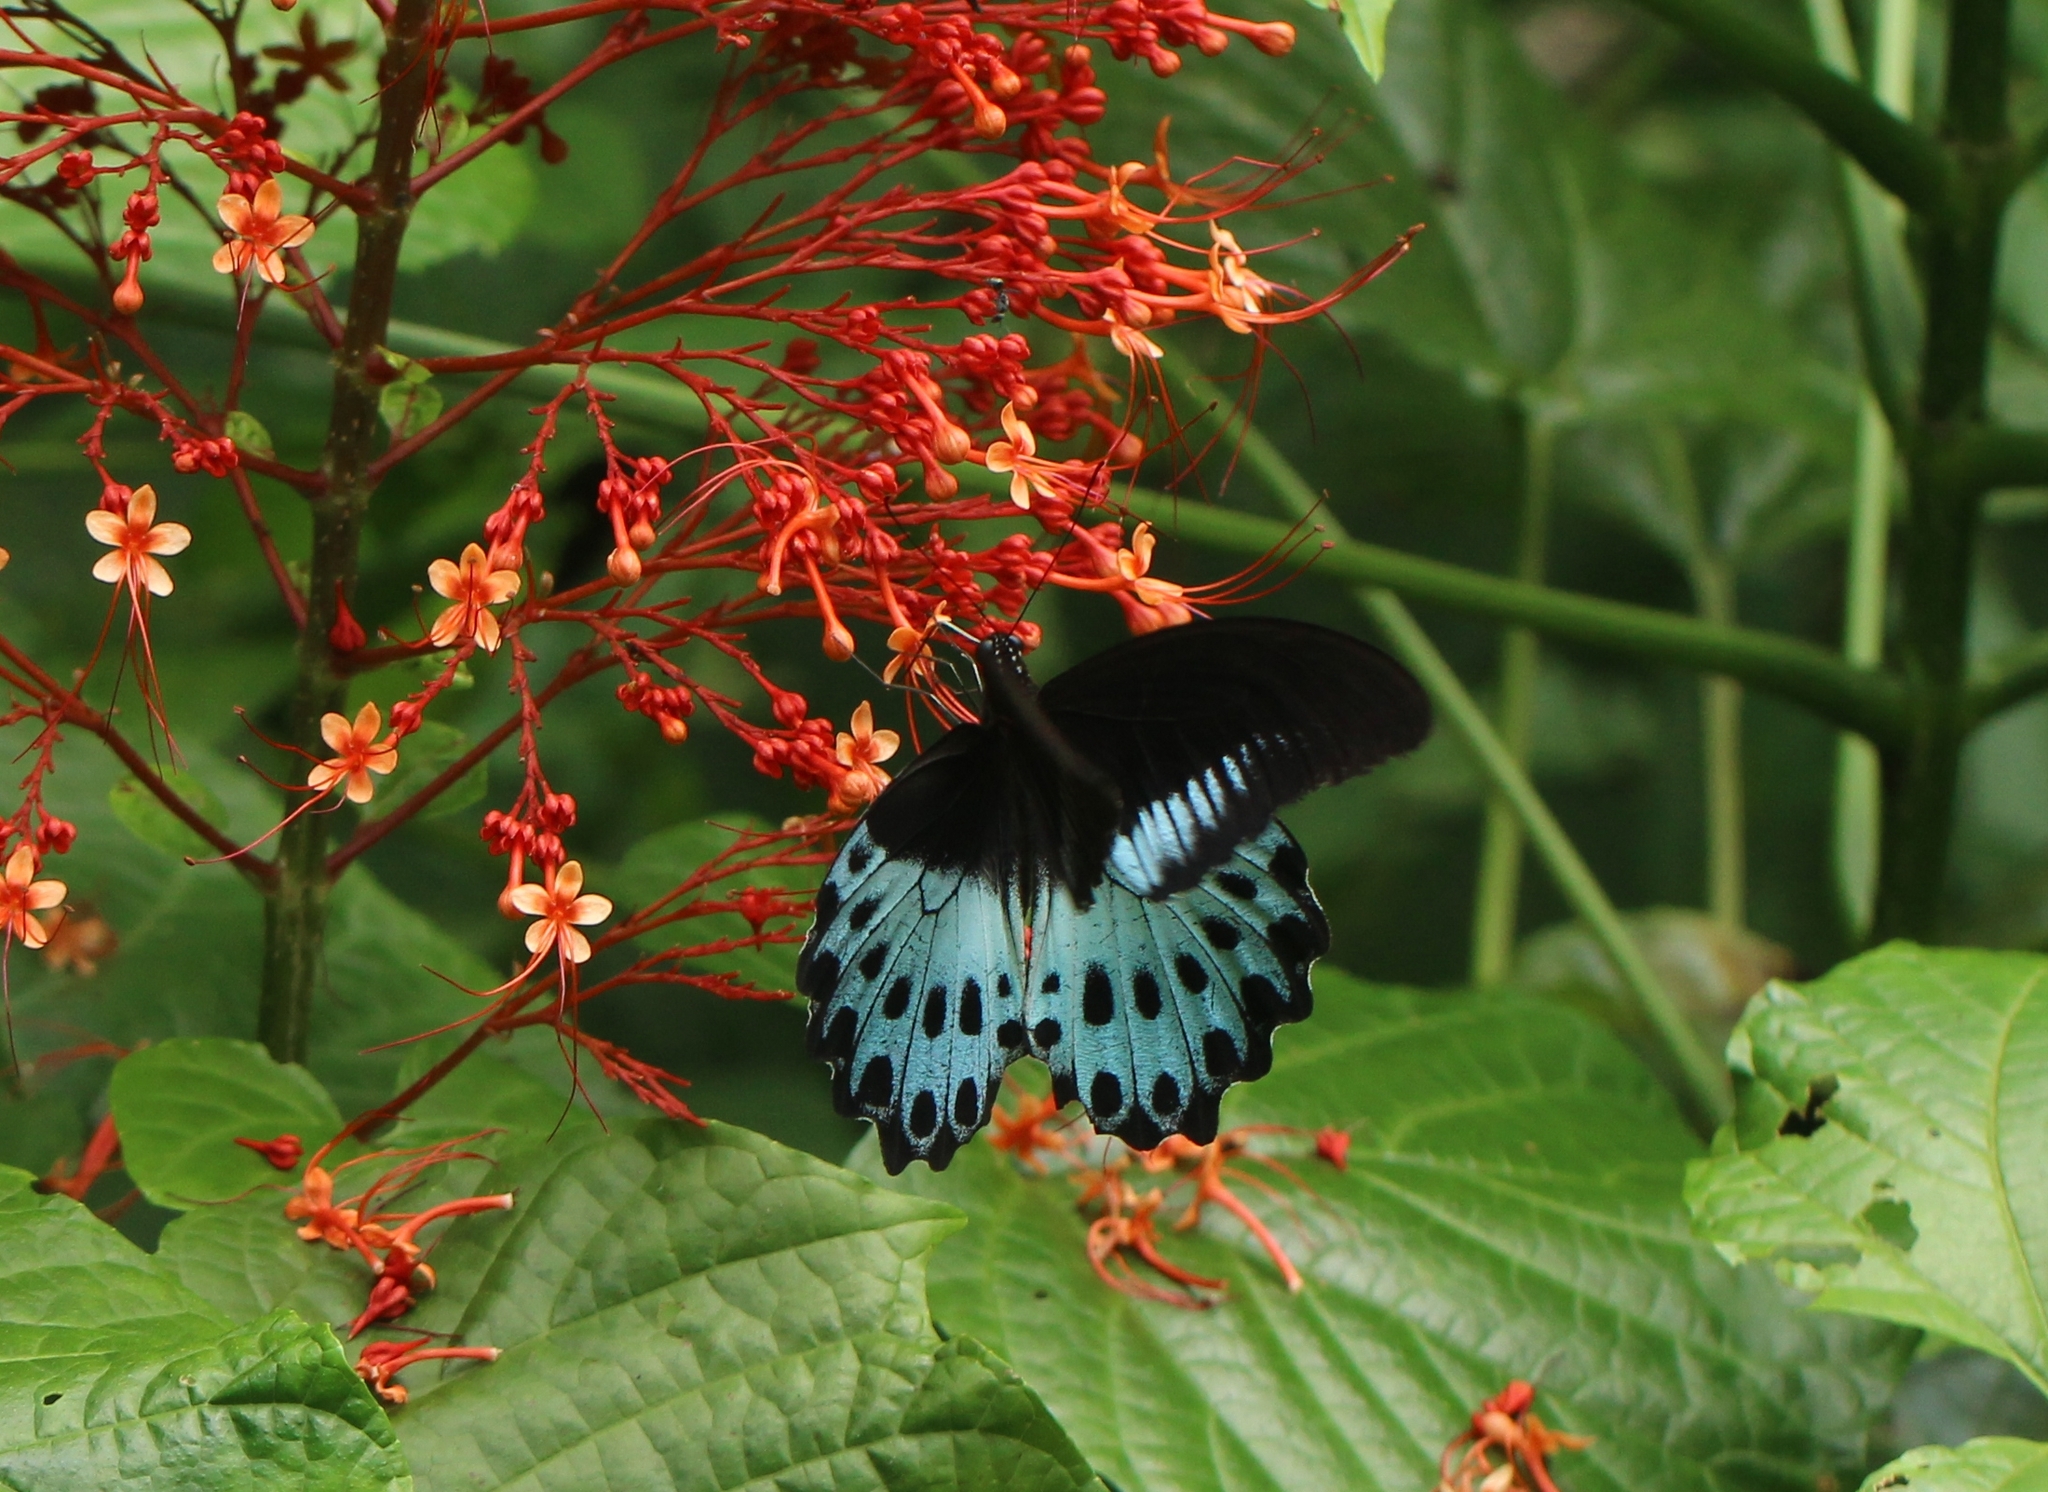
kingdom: Animalia
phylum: Arthropoda
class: Insecta
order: Lepidoptera
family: Papilionidae
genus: Papilio
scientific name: Papilio memnon
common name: Great mormon
